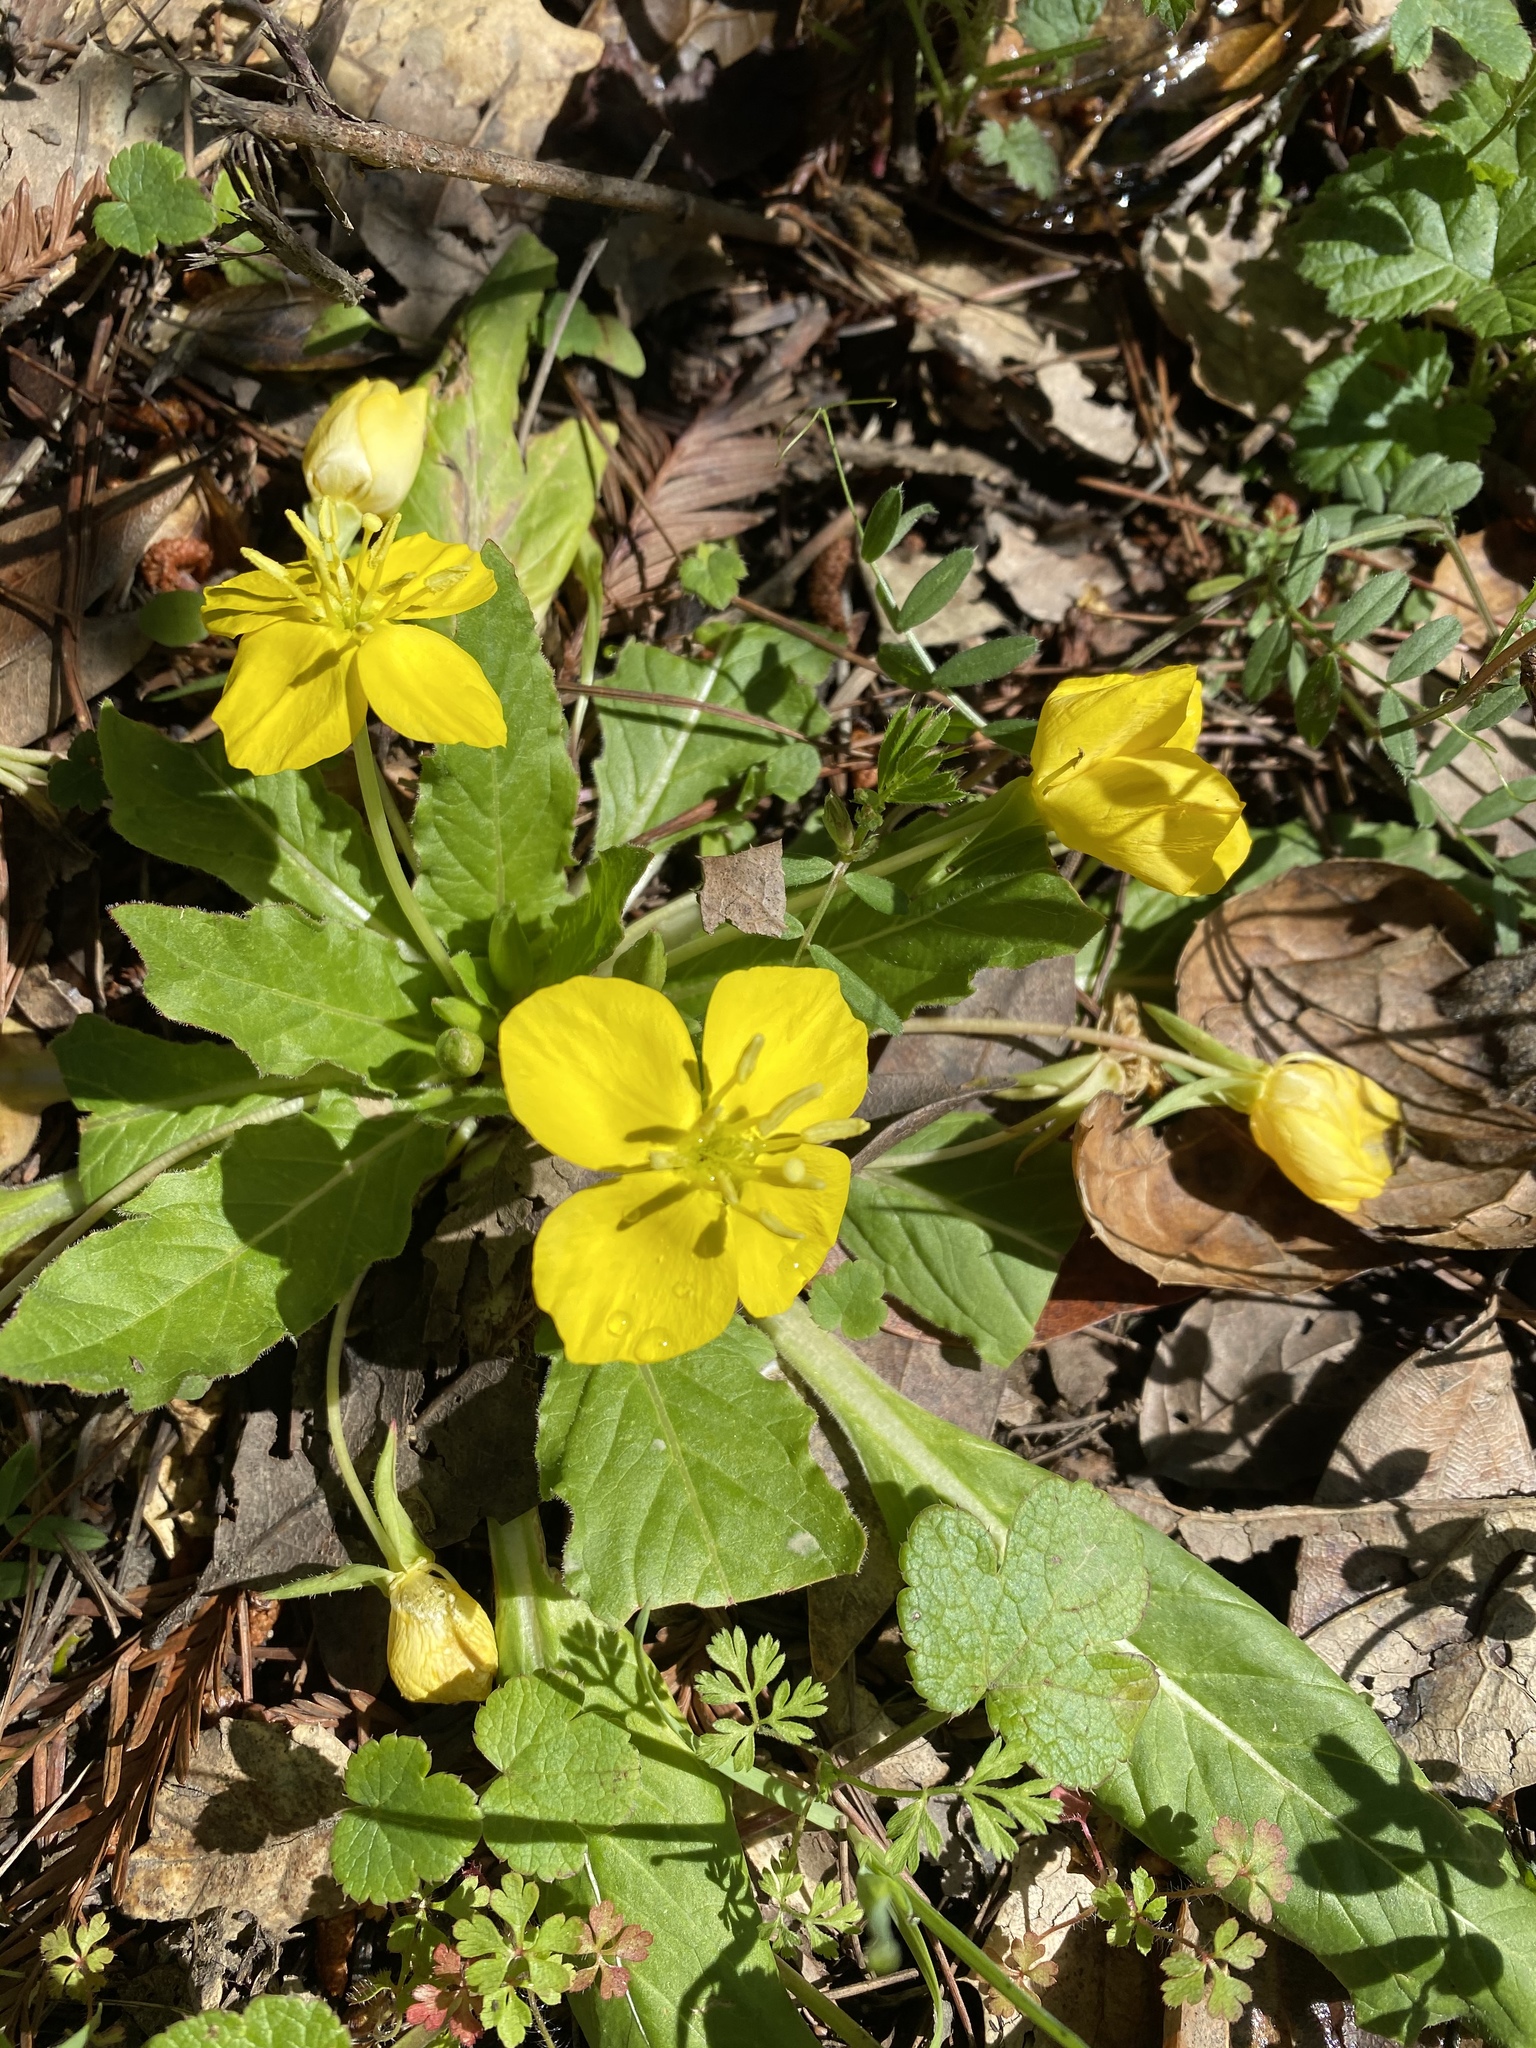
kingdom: Plantae
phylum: Tracheophyta
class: Magnoliopsida
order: Myrtales
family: Onagraceae
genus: Taraxia
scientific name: Taraxia ovata
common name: Goldeneggs
